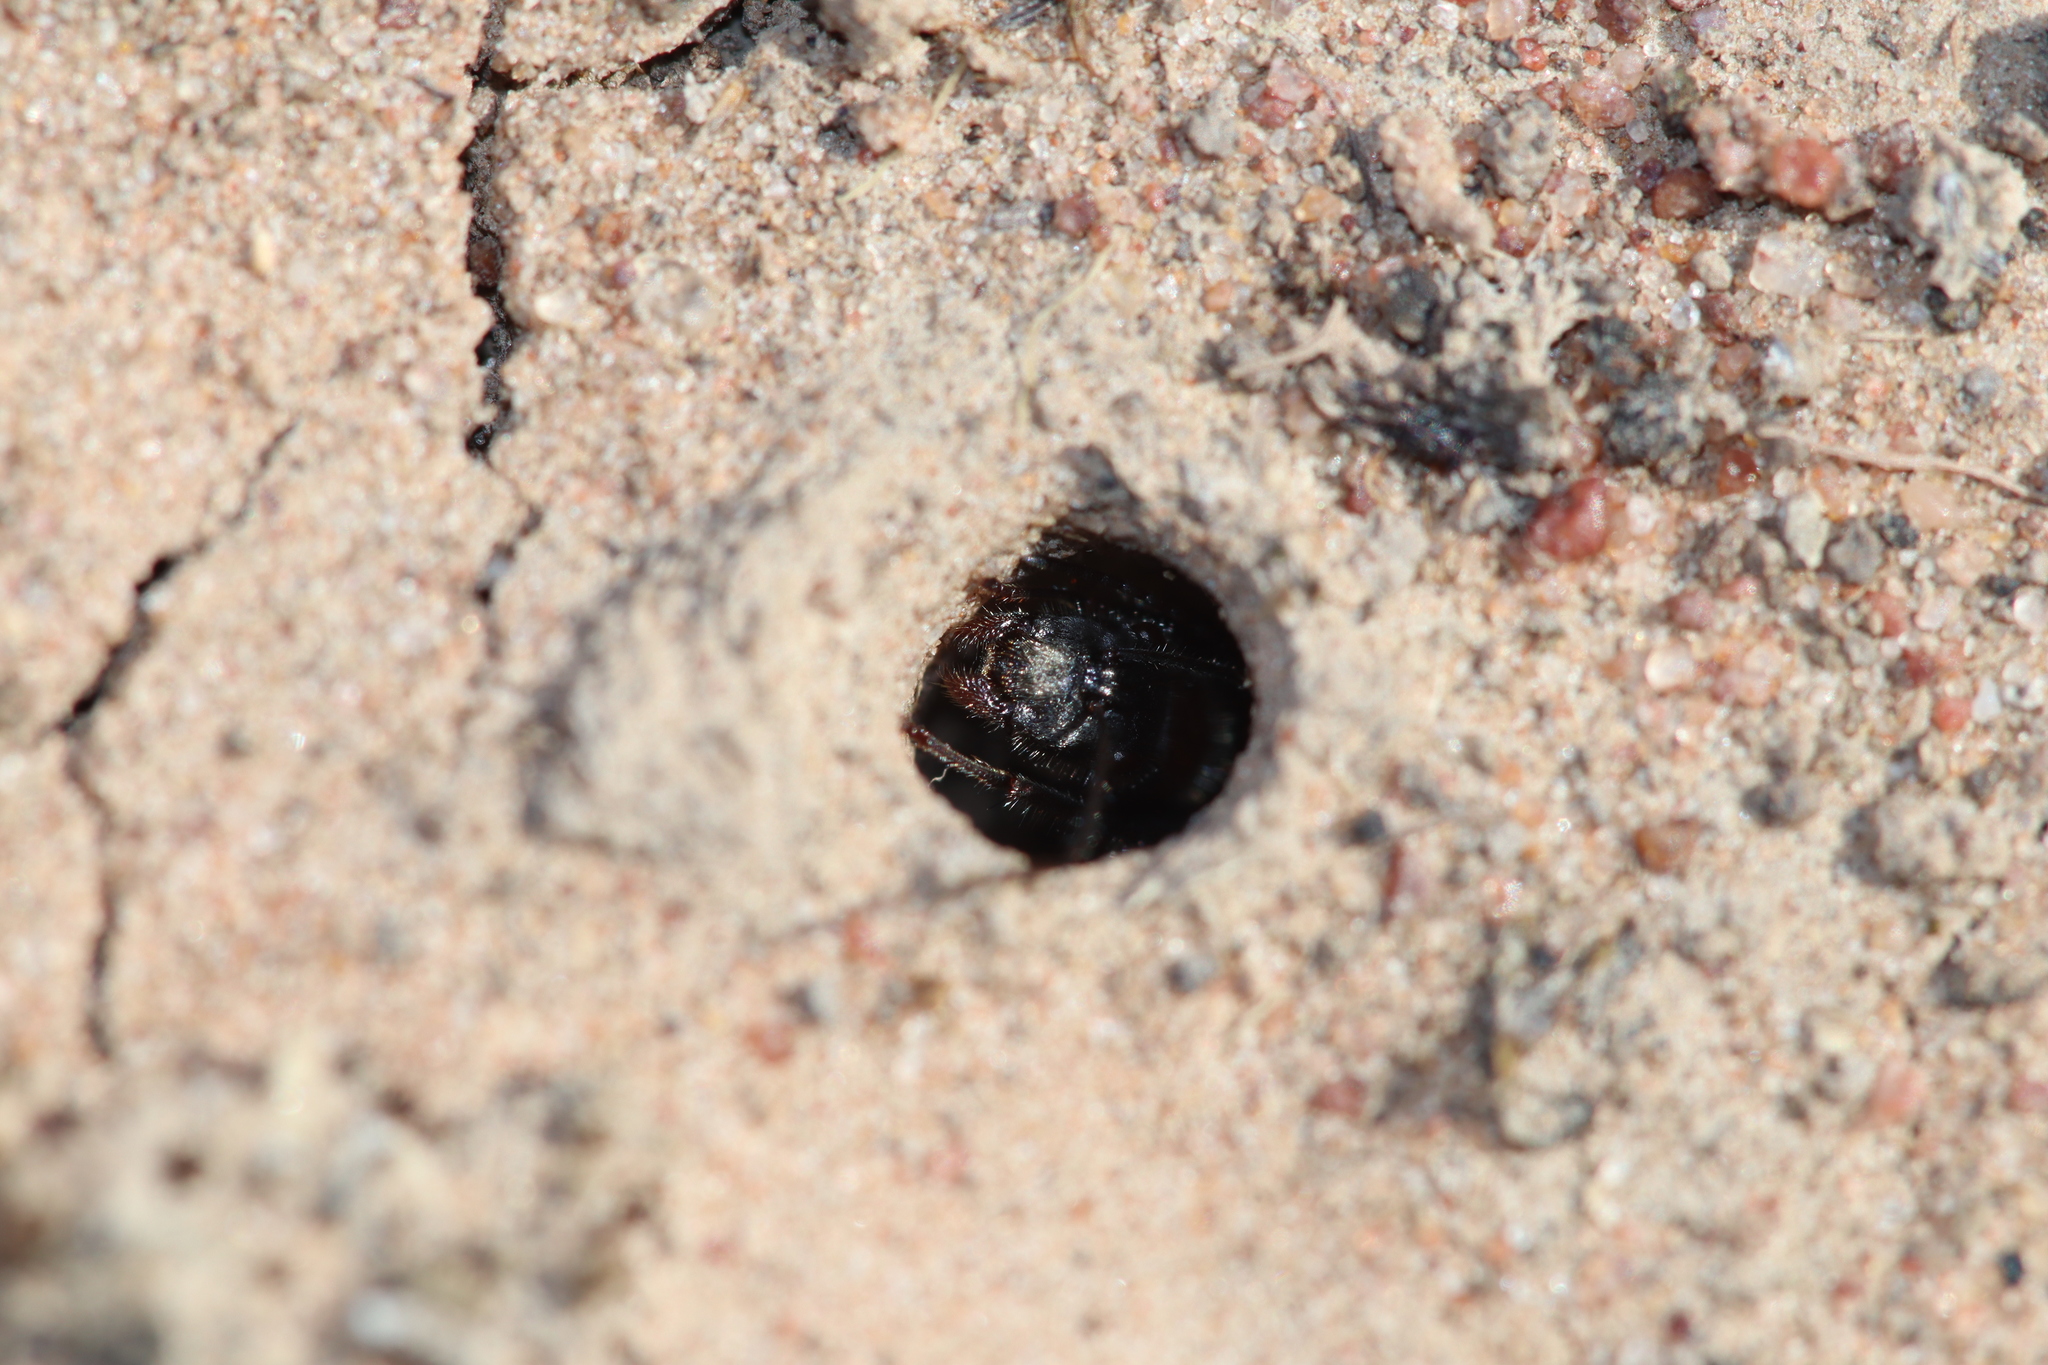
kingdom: Animalia
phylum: Arthropoda
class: Insecta
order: Hymenoptera
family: Formicidae
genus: Camponotus
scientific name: Camponotus tasmani
